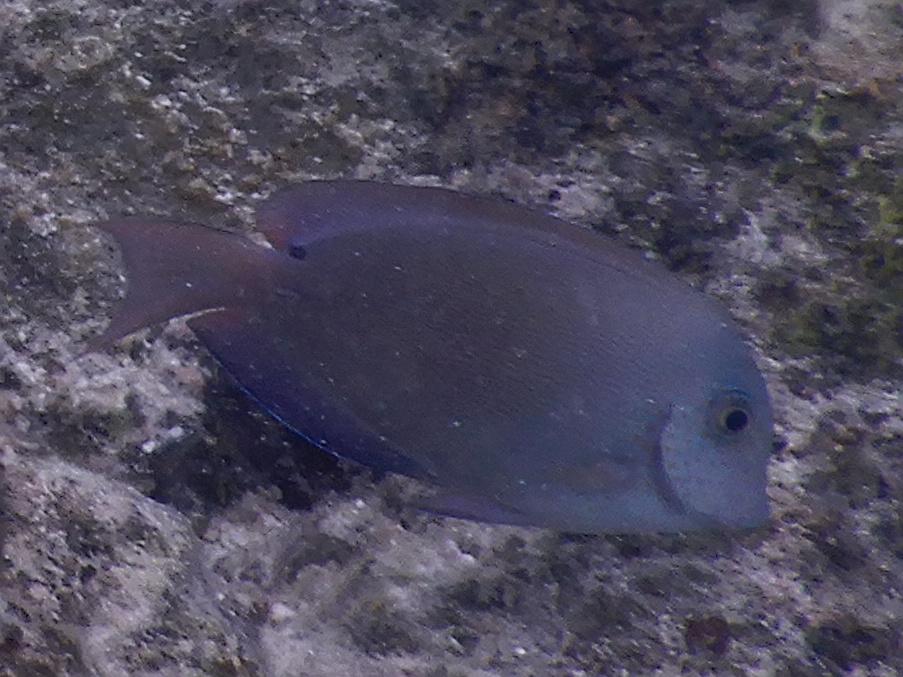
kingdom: Animalia
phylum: Chordata
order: Perciformes
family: Acanthuridae
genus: Acanthurus
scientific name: Acanthurus nigrofuscus
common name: Blackspot surgeonfish
